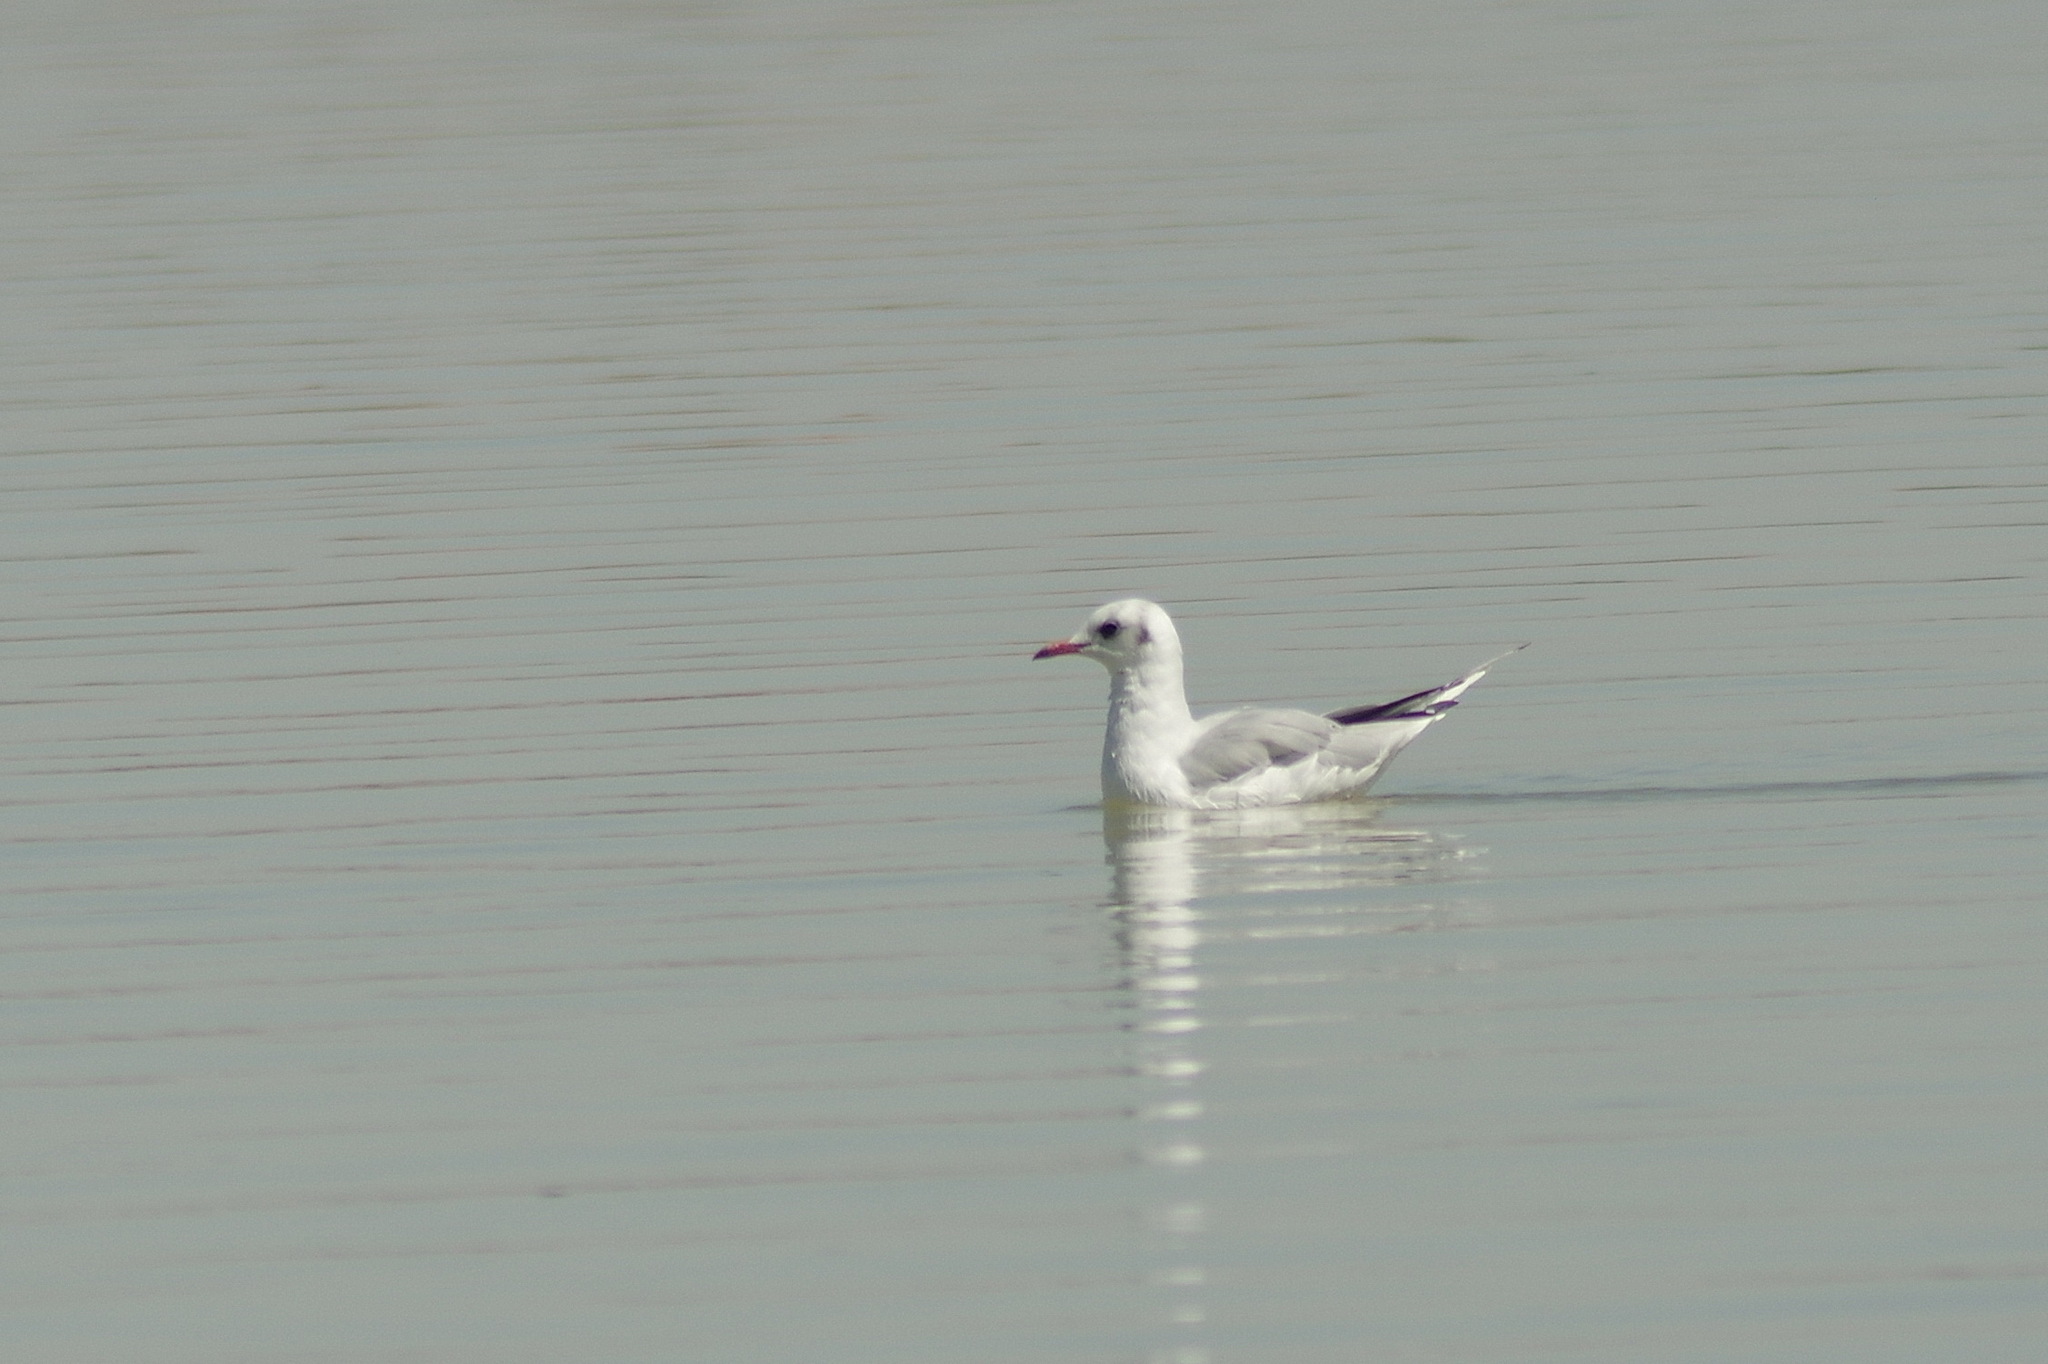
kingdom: Animalia
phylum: Chordata
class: Aves
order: Charadriiformes
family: Laridae
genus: Chroicocephalus
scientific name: Chroicocephalus ridibundus
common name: Black-headed gull
